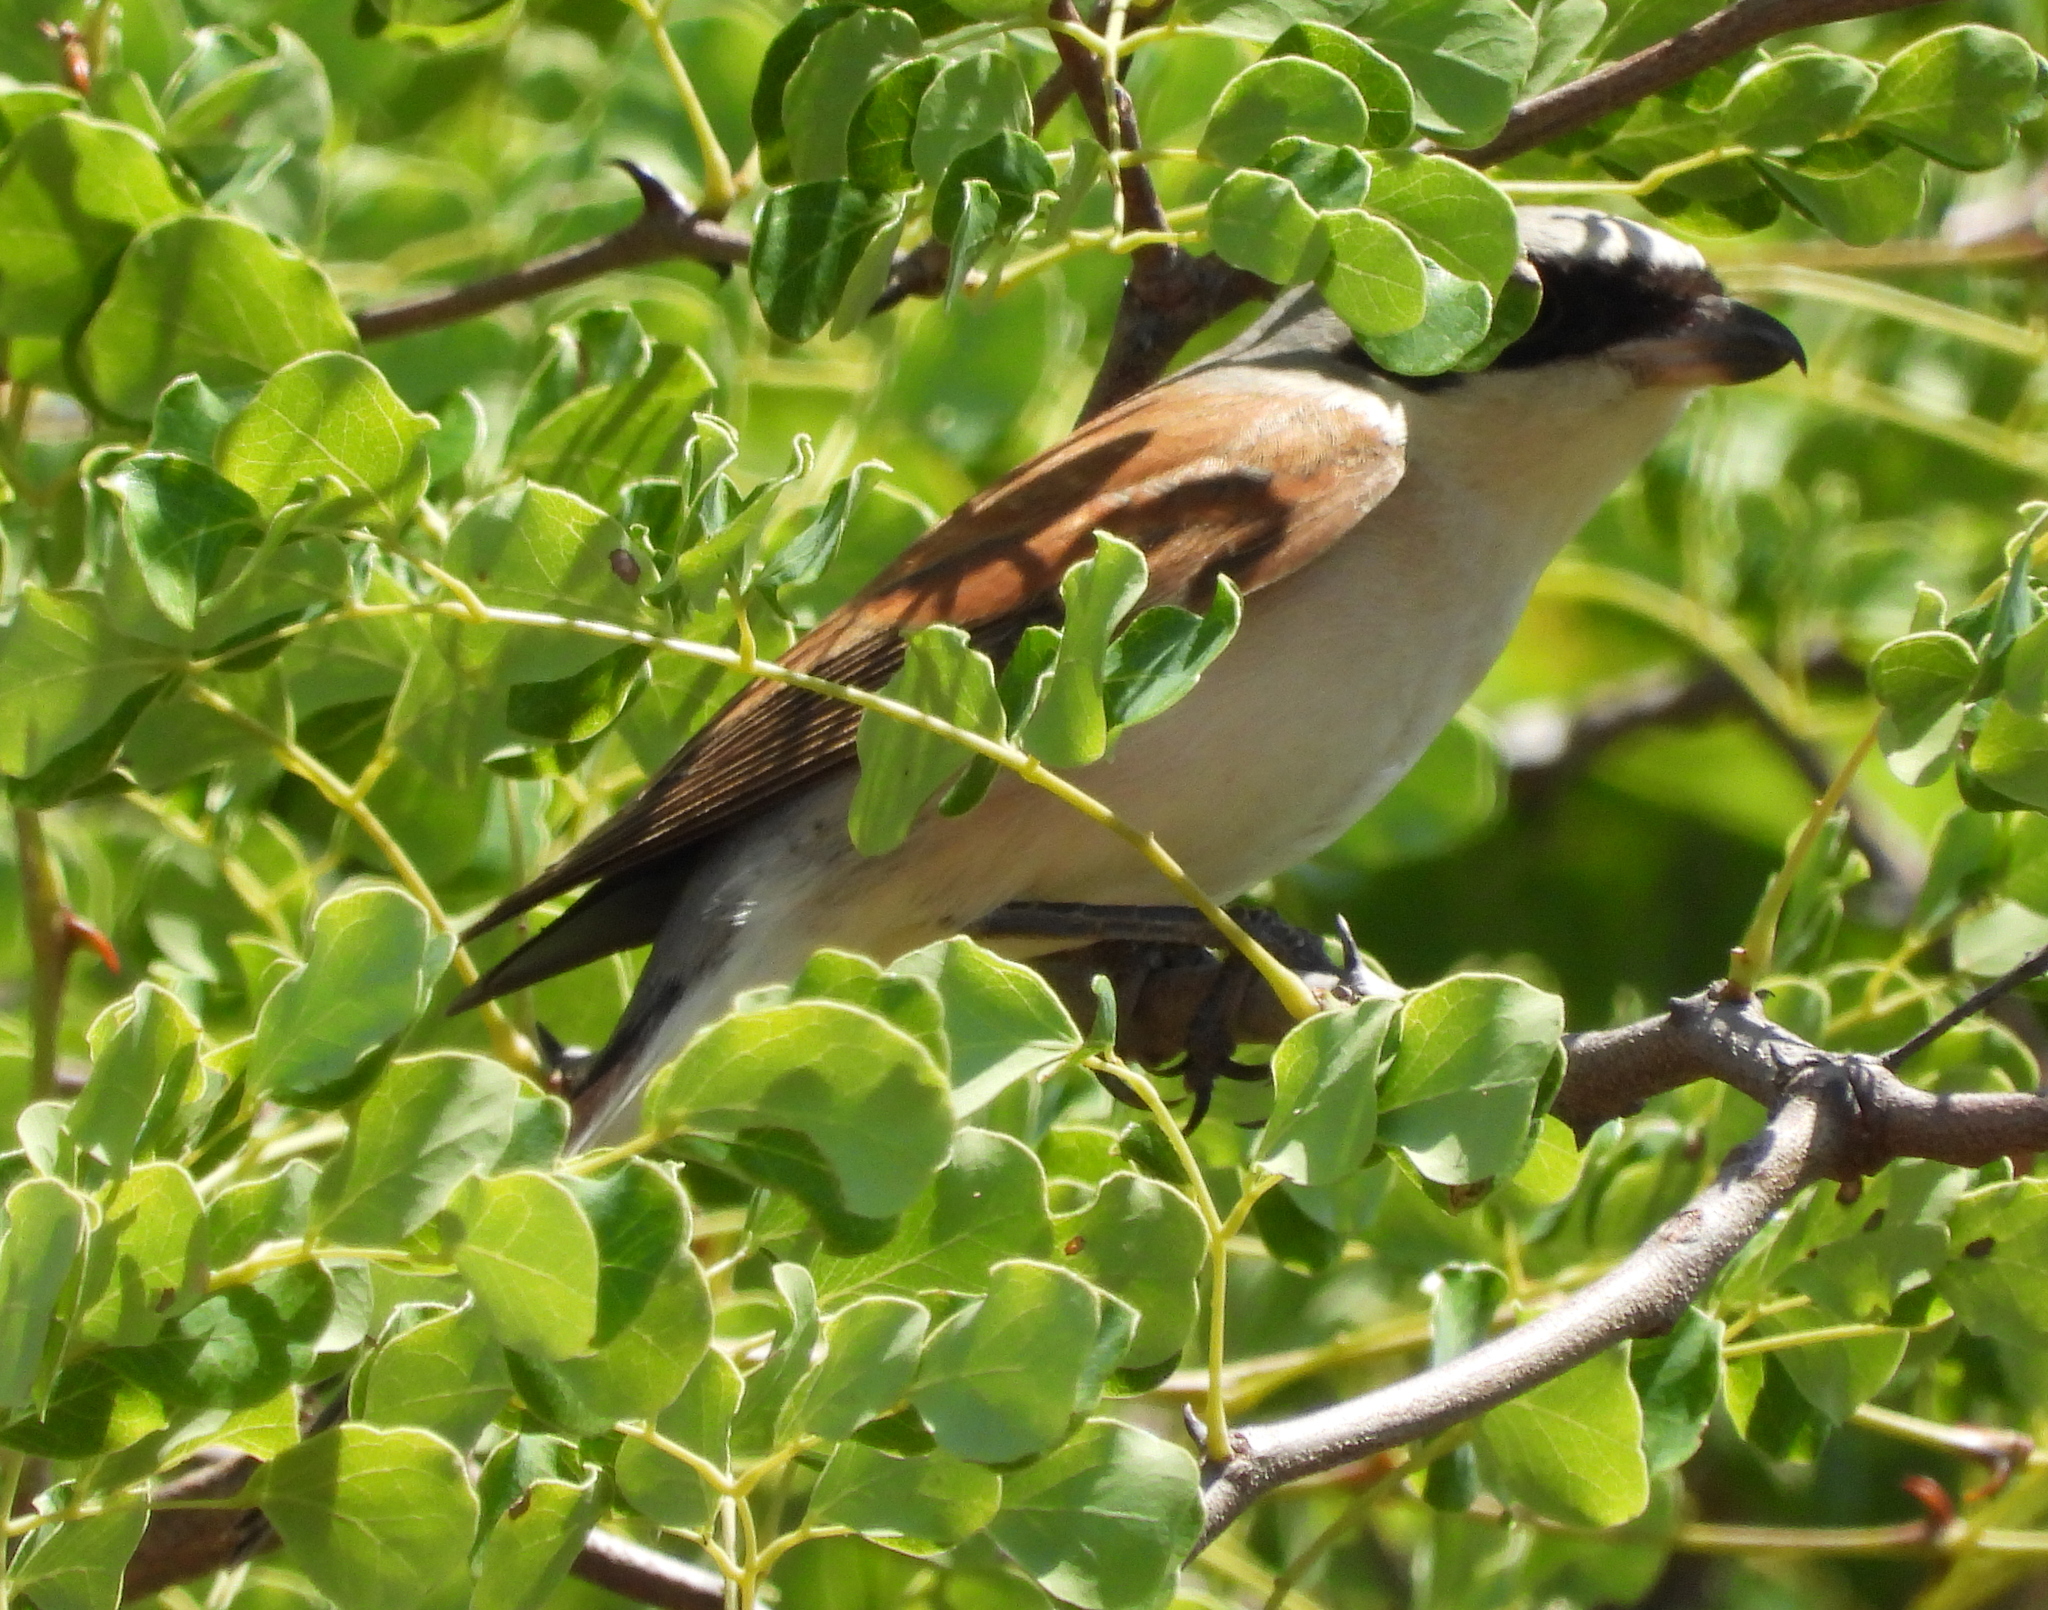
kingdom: Animalia
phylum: Chordata
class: Aves
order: Passeriformes
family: Laniidae
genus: Lanius
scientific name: Lanius collurio
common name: Red-backed shrike
